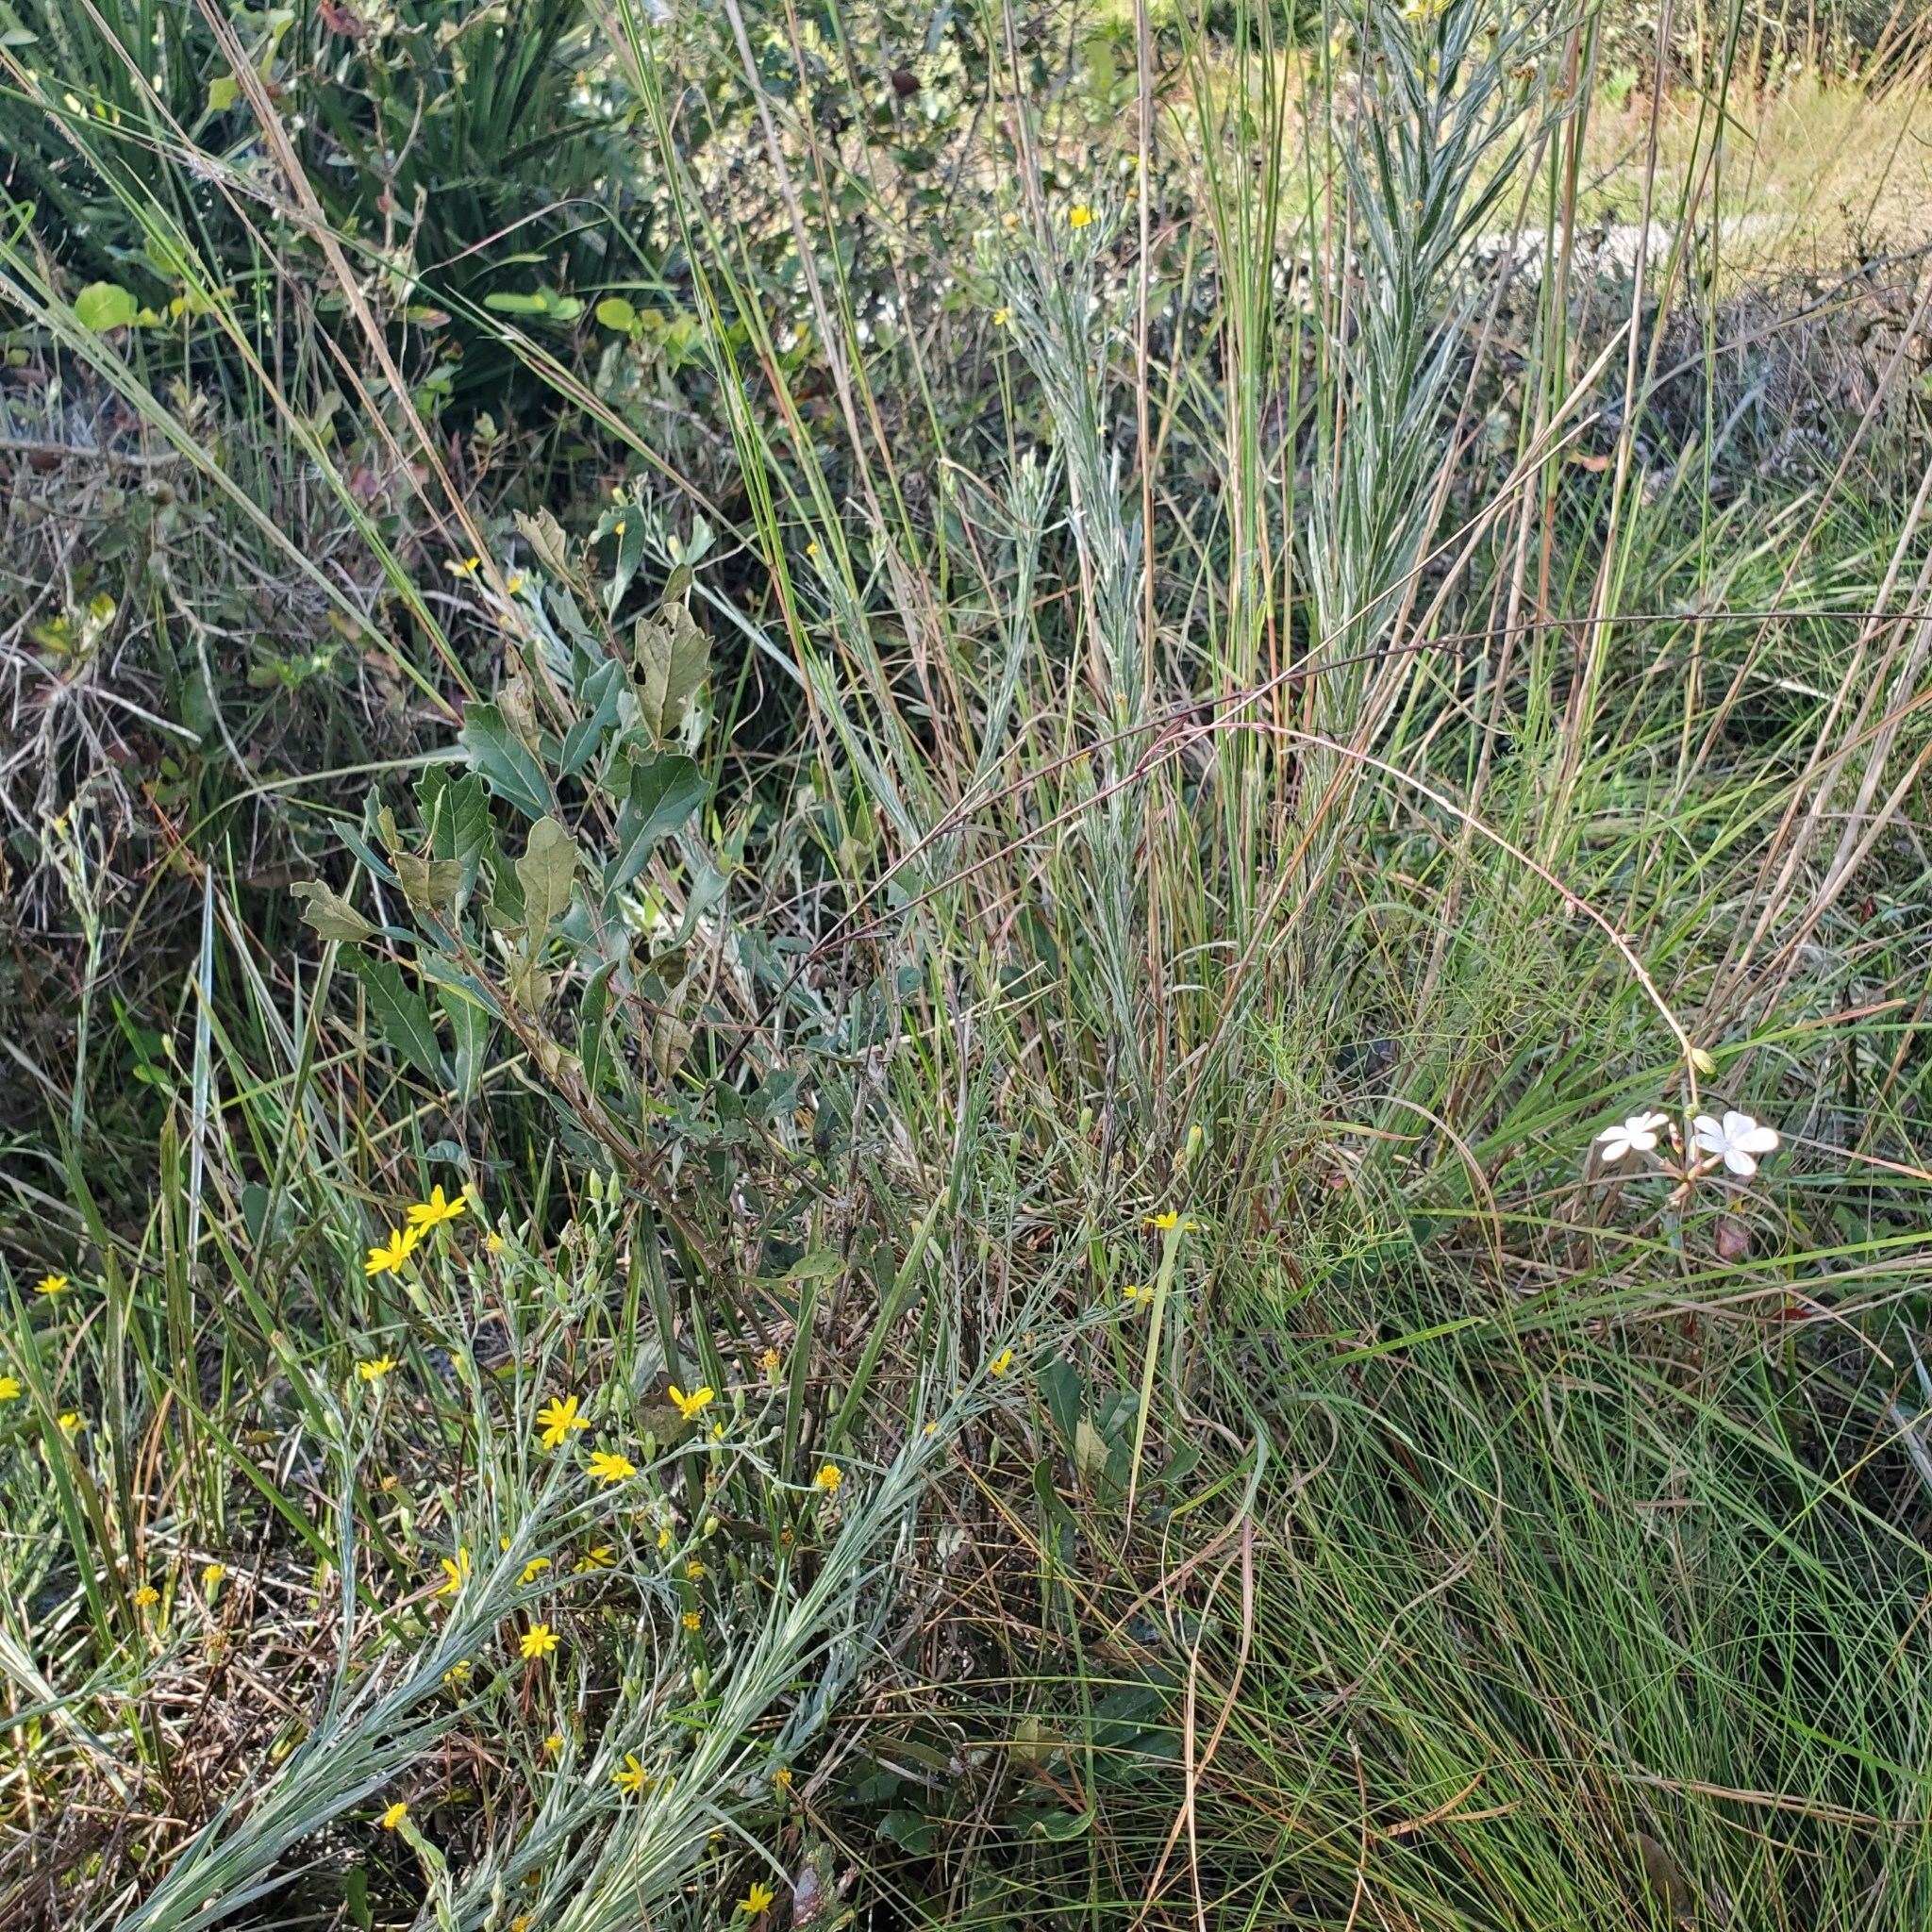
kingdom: Plantae
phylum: Tracheophyta
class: Magnoliopsida
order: Lamiales
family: Orobanchaceae
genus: Buchnera
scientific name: Buchnera floridana
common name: Florida bluehearts
